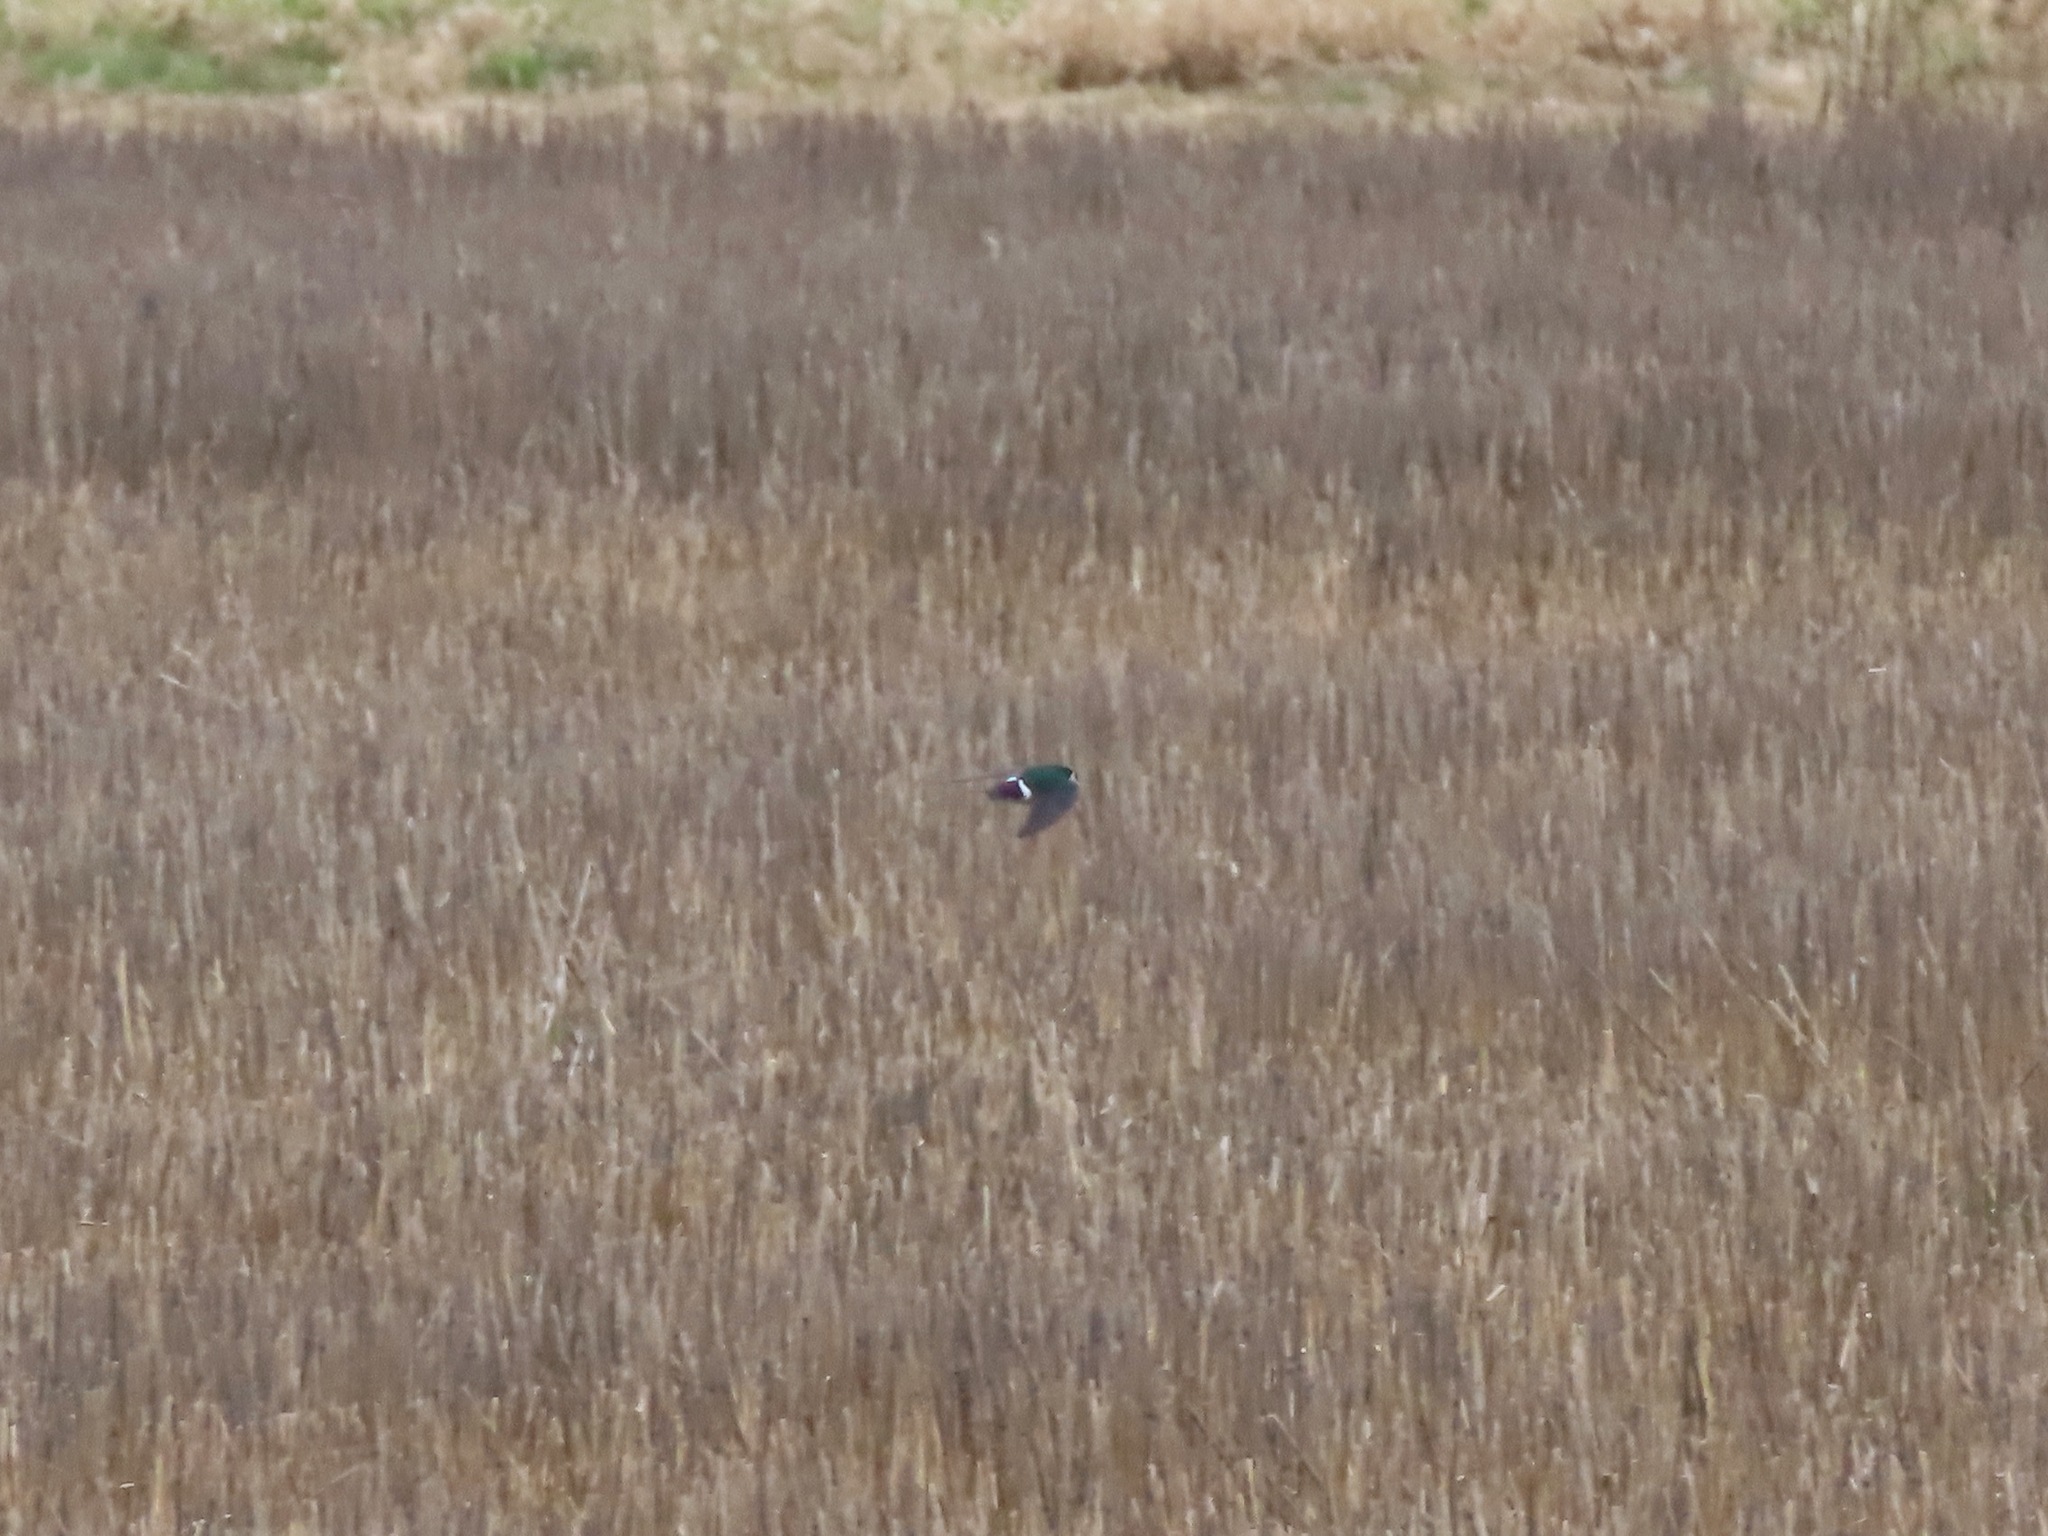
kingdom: Animalia
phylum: Chordata
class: Aves
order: Passeriformes
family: Hirundinidae
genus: Tachycineta
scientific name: Tachycineta thalassina
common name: Violet-green swallow
